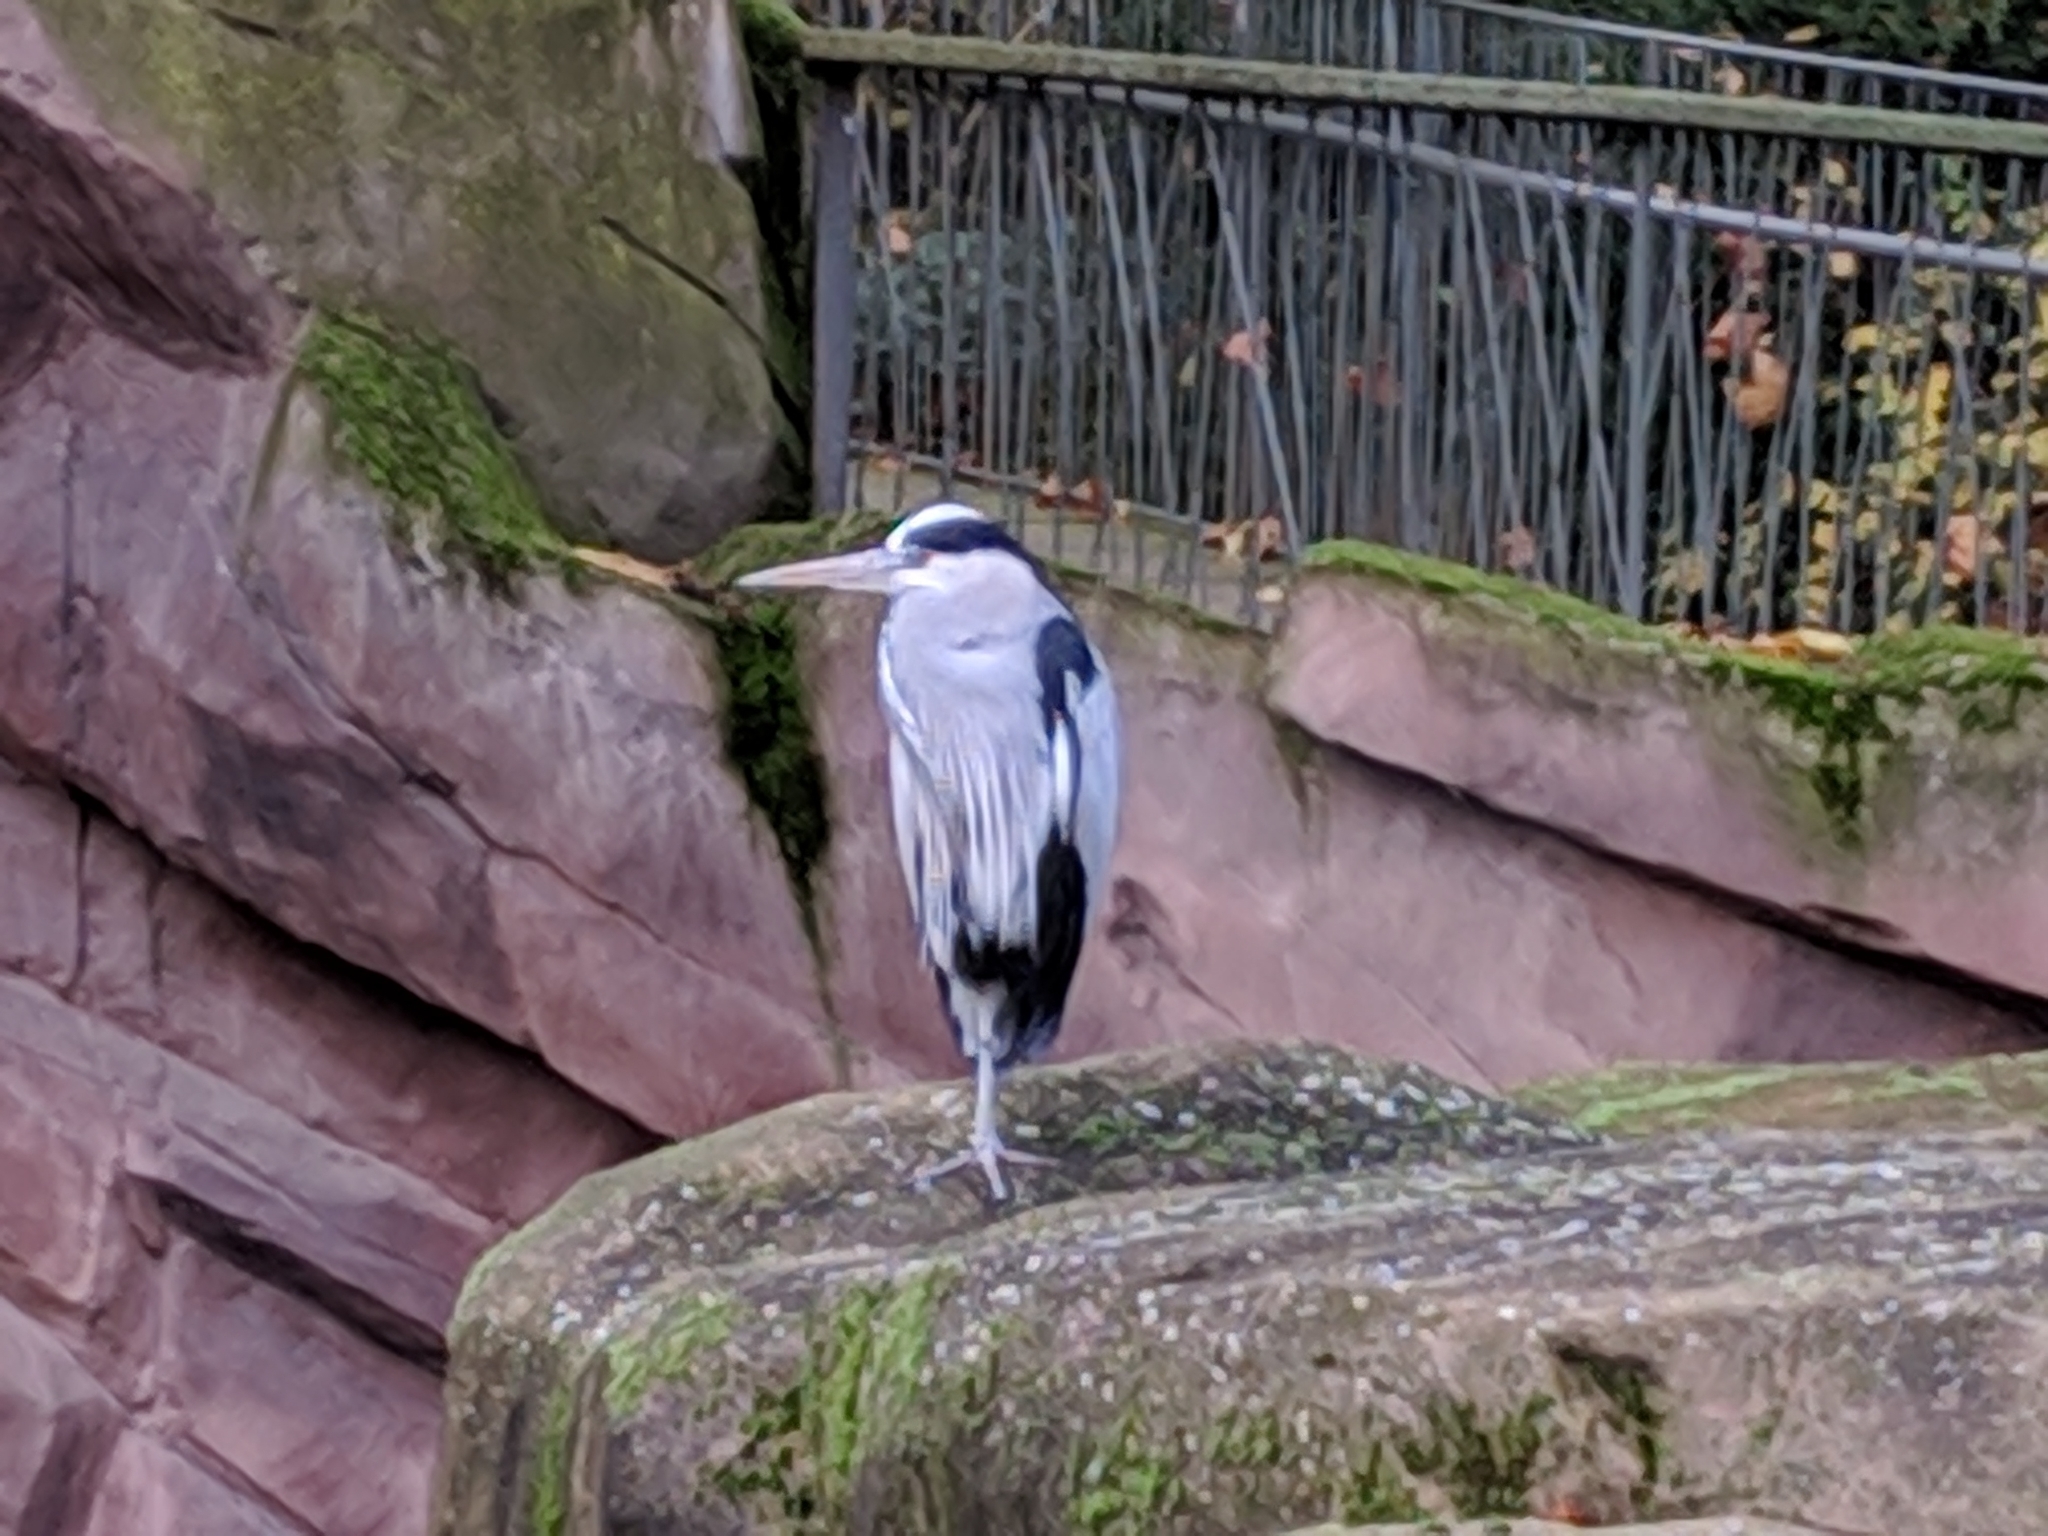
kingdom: Animalia
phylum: Chordata
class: Aves
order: Pelecaniformes
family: Ardeidae
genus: Ardea
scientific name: Ardea cinerea
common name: Grey heron
